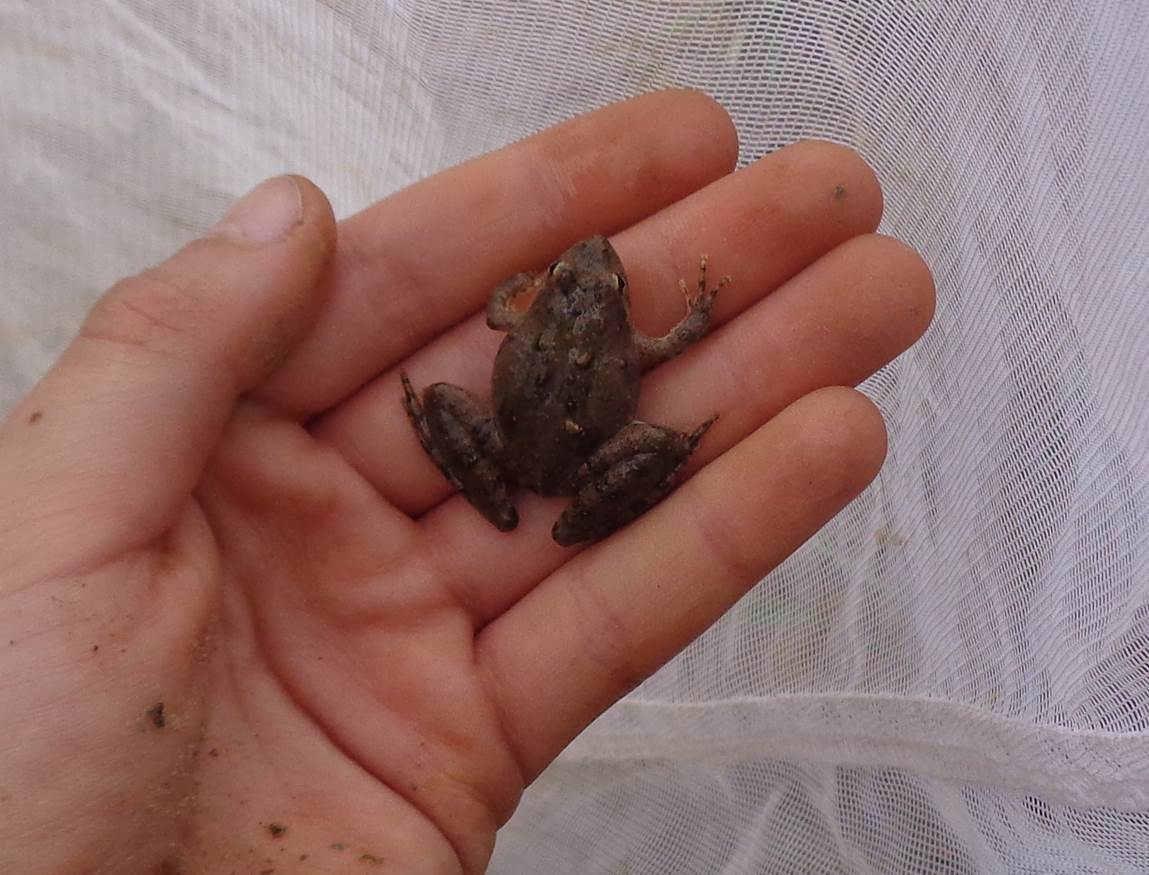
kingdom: Animalia
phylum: Chordata
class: Amphibia
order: Anura
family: Hylidae
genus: Acris
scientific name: Acris blanchardi
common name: Blanchard's cricket frog
